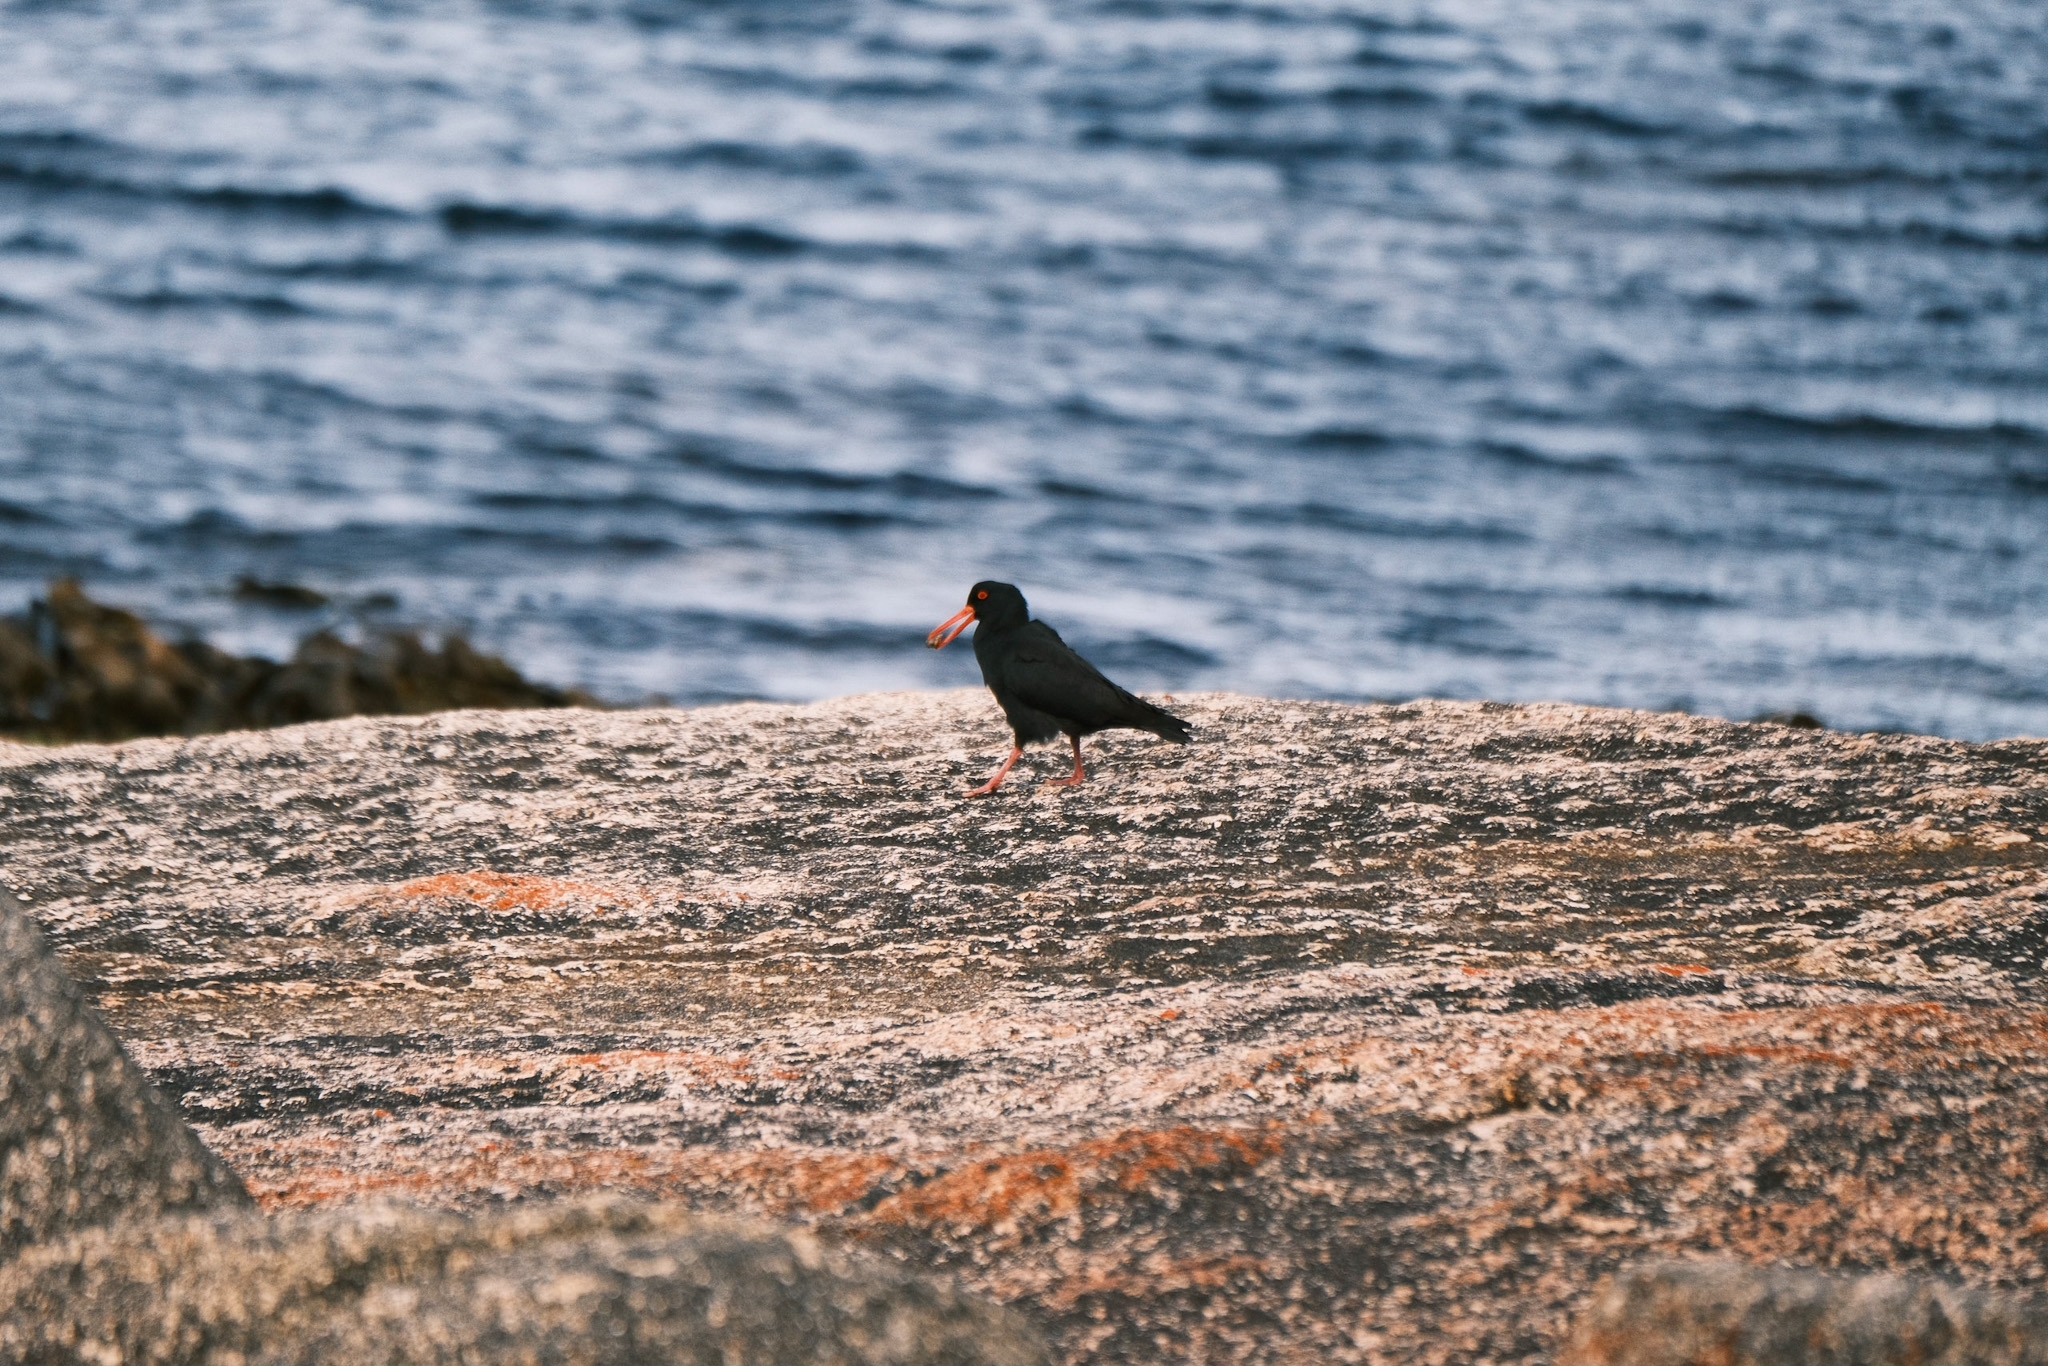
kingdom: Animalia
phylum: Chordata
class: Aves
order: Charadriiformes
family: Haematopodidae
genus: Haematopus
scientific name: Haematopus fuliginosus
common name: Sooty oystercatcher
